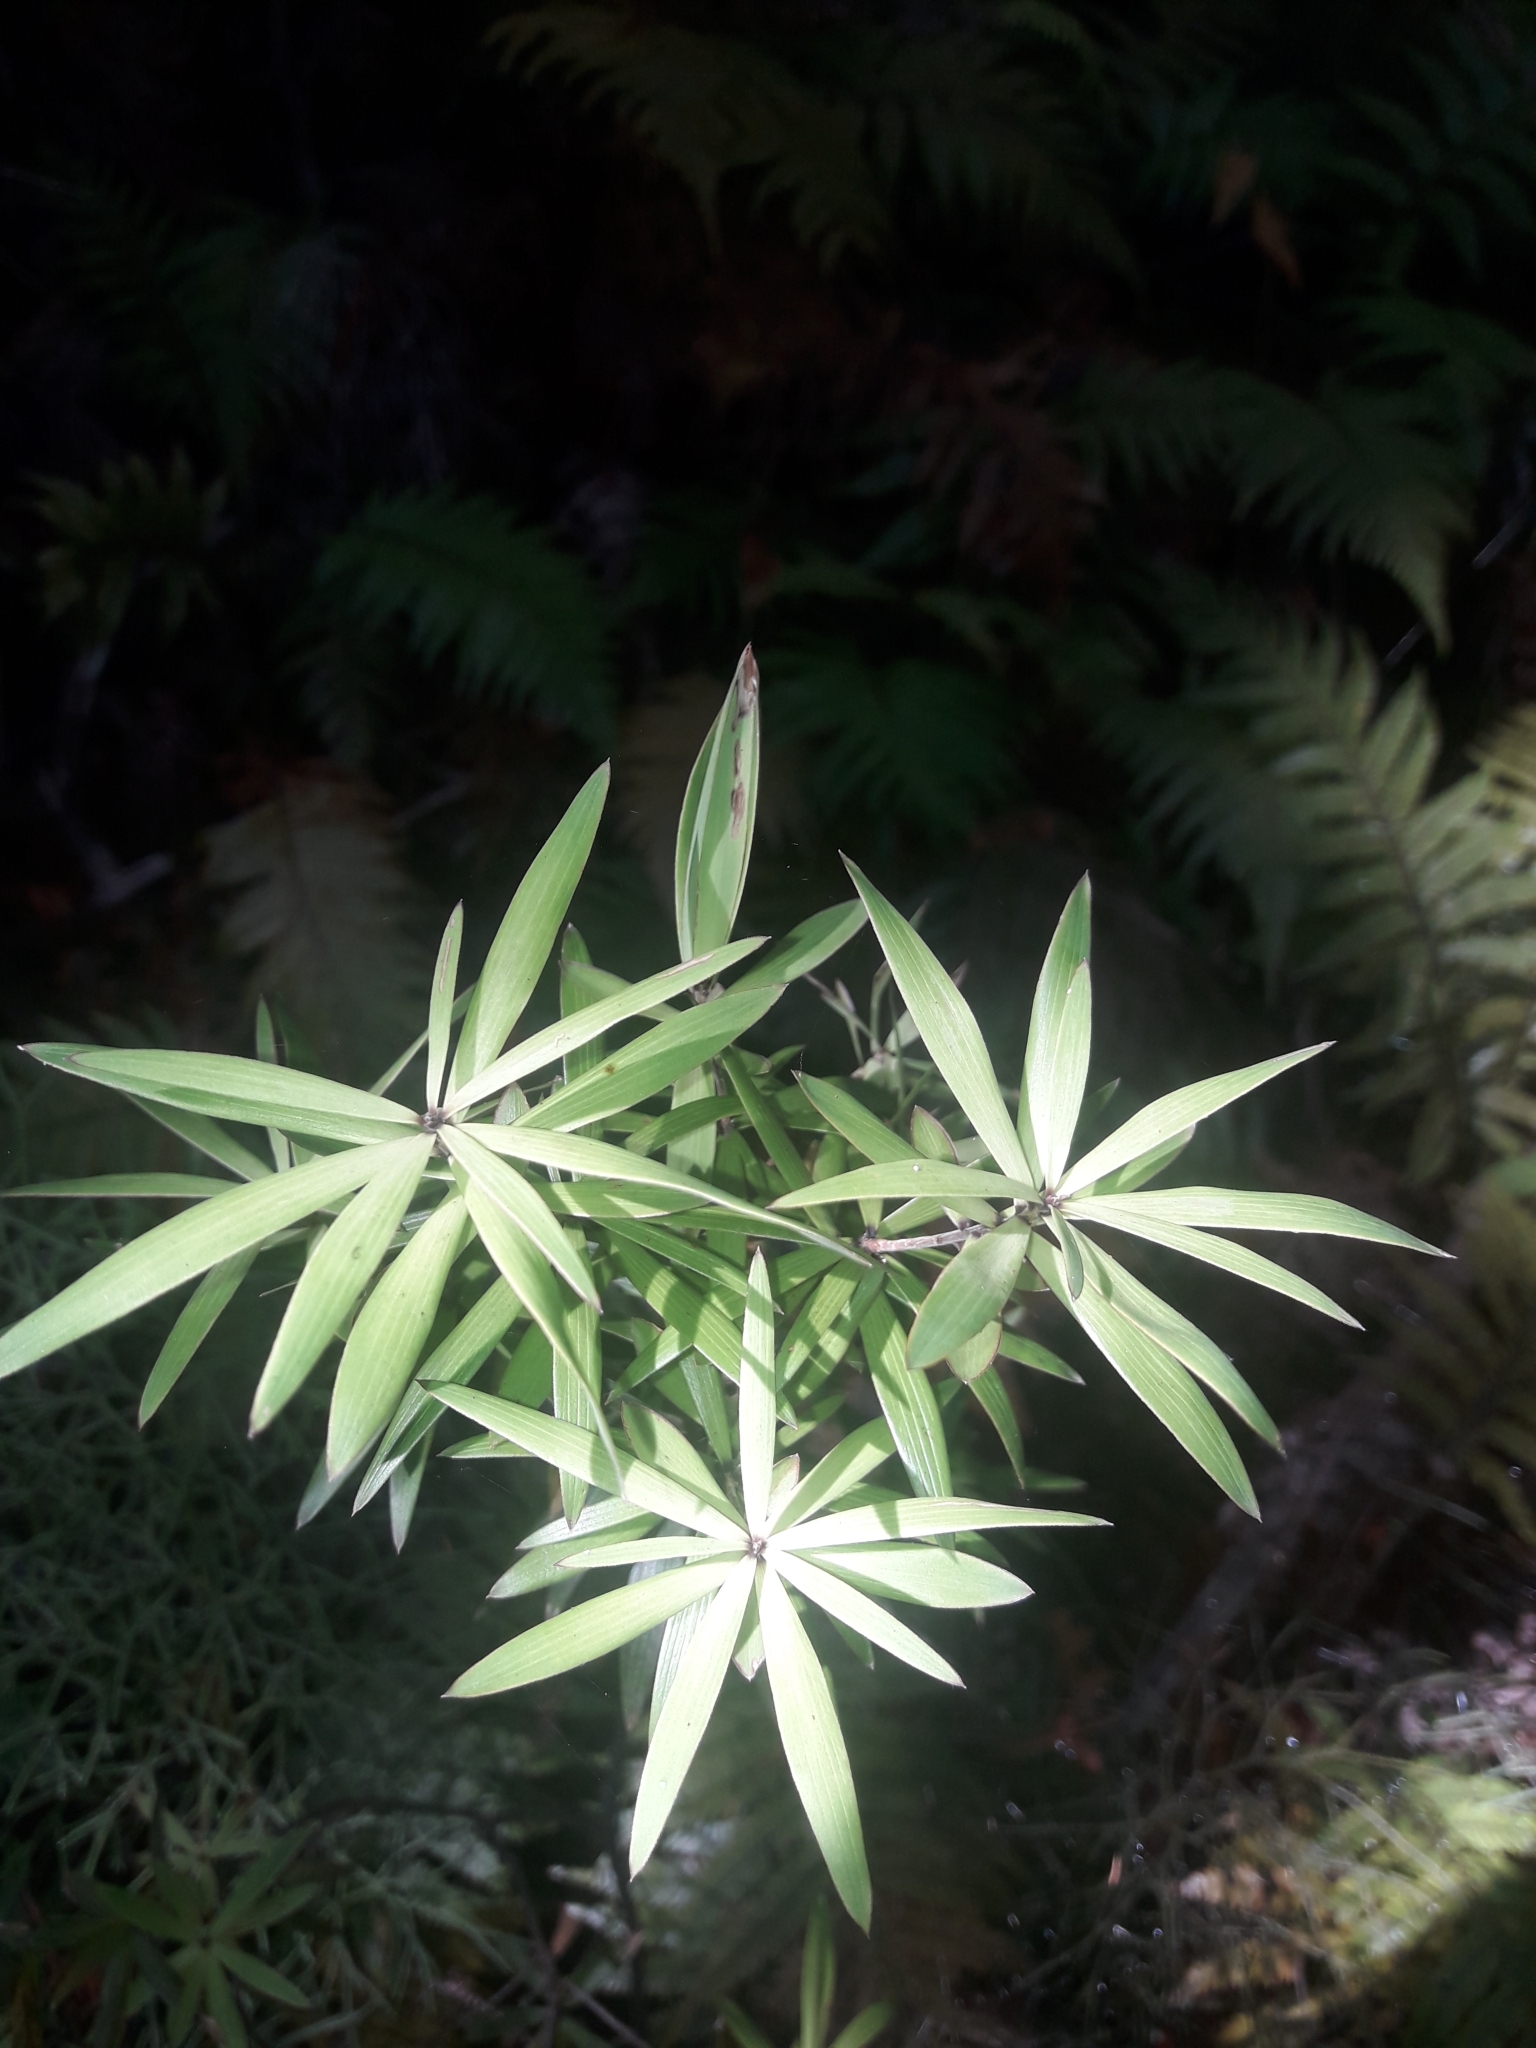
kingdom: Plantae
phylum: Tracheophyta
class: Magnoliopsida
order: Ericales
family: Ericaceae
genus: Leucopogon
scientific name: Leucopogon fasciculatus
